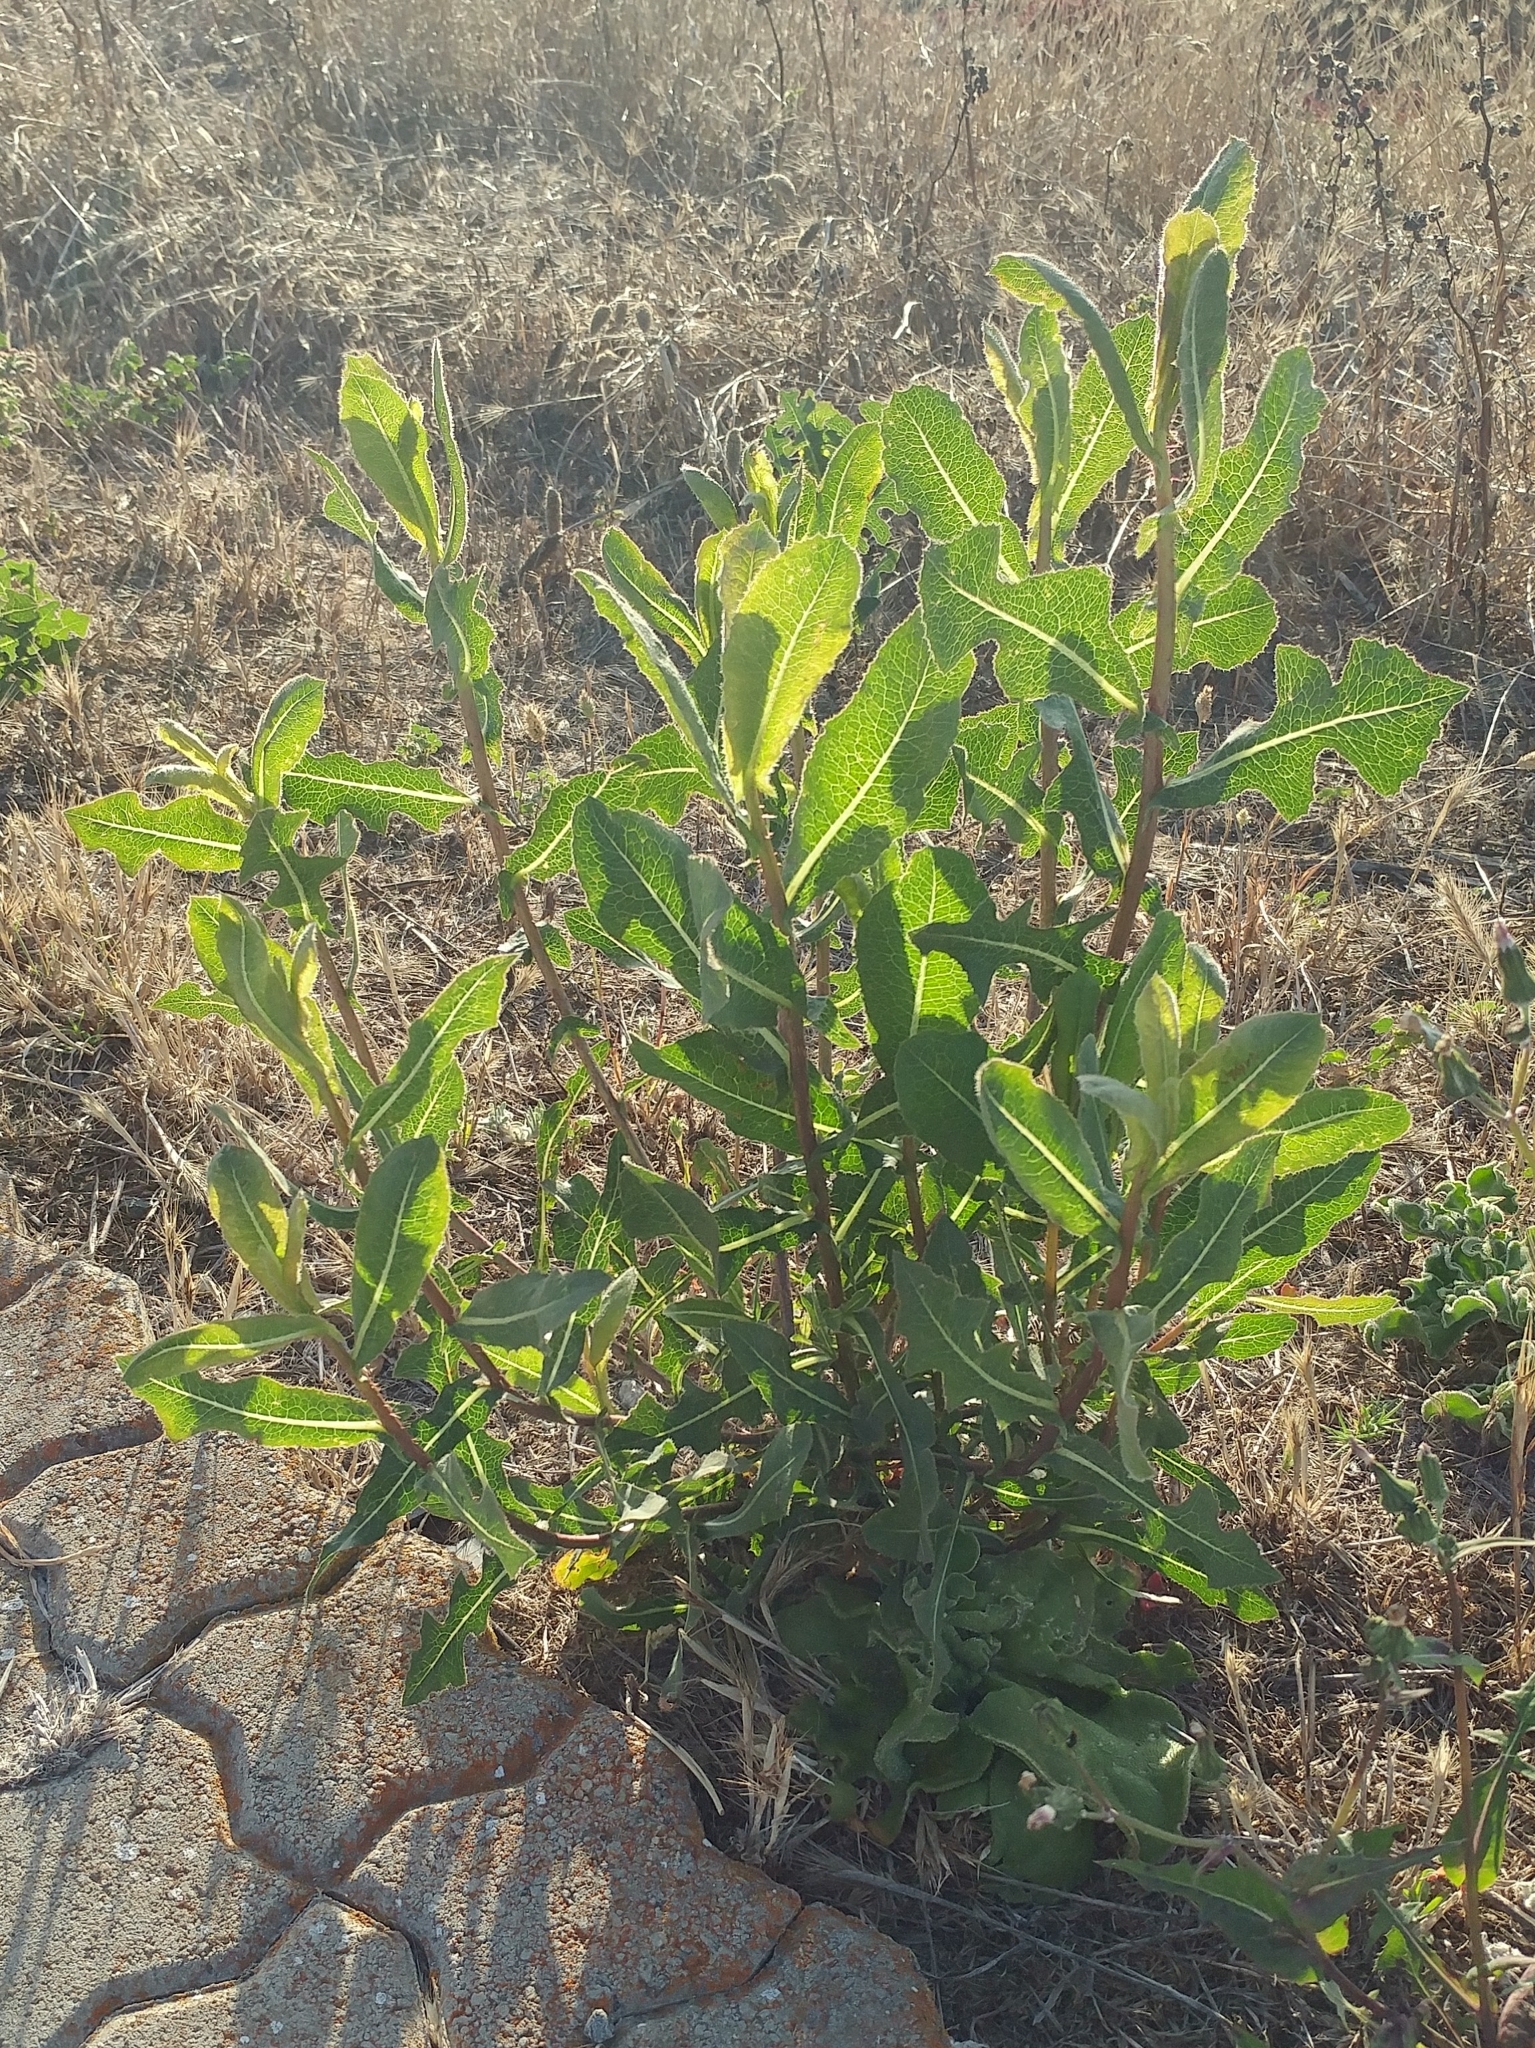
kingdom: Plantae
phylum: Tracheophyta
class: Magnoliopsida
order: Asterales
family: Asteraceae
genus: Lactuca
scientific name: Lactuca serriola
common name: Prickly lettuce
